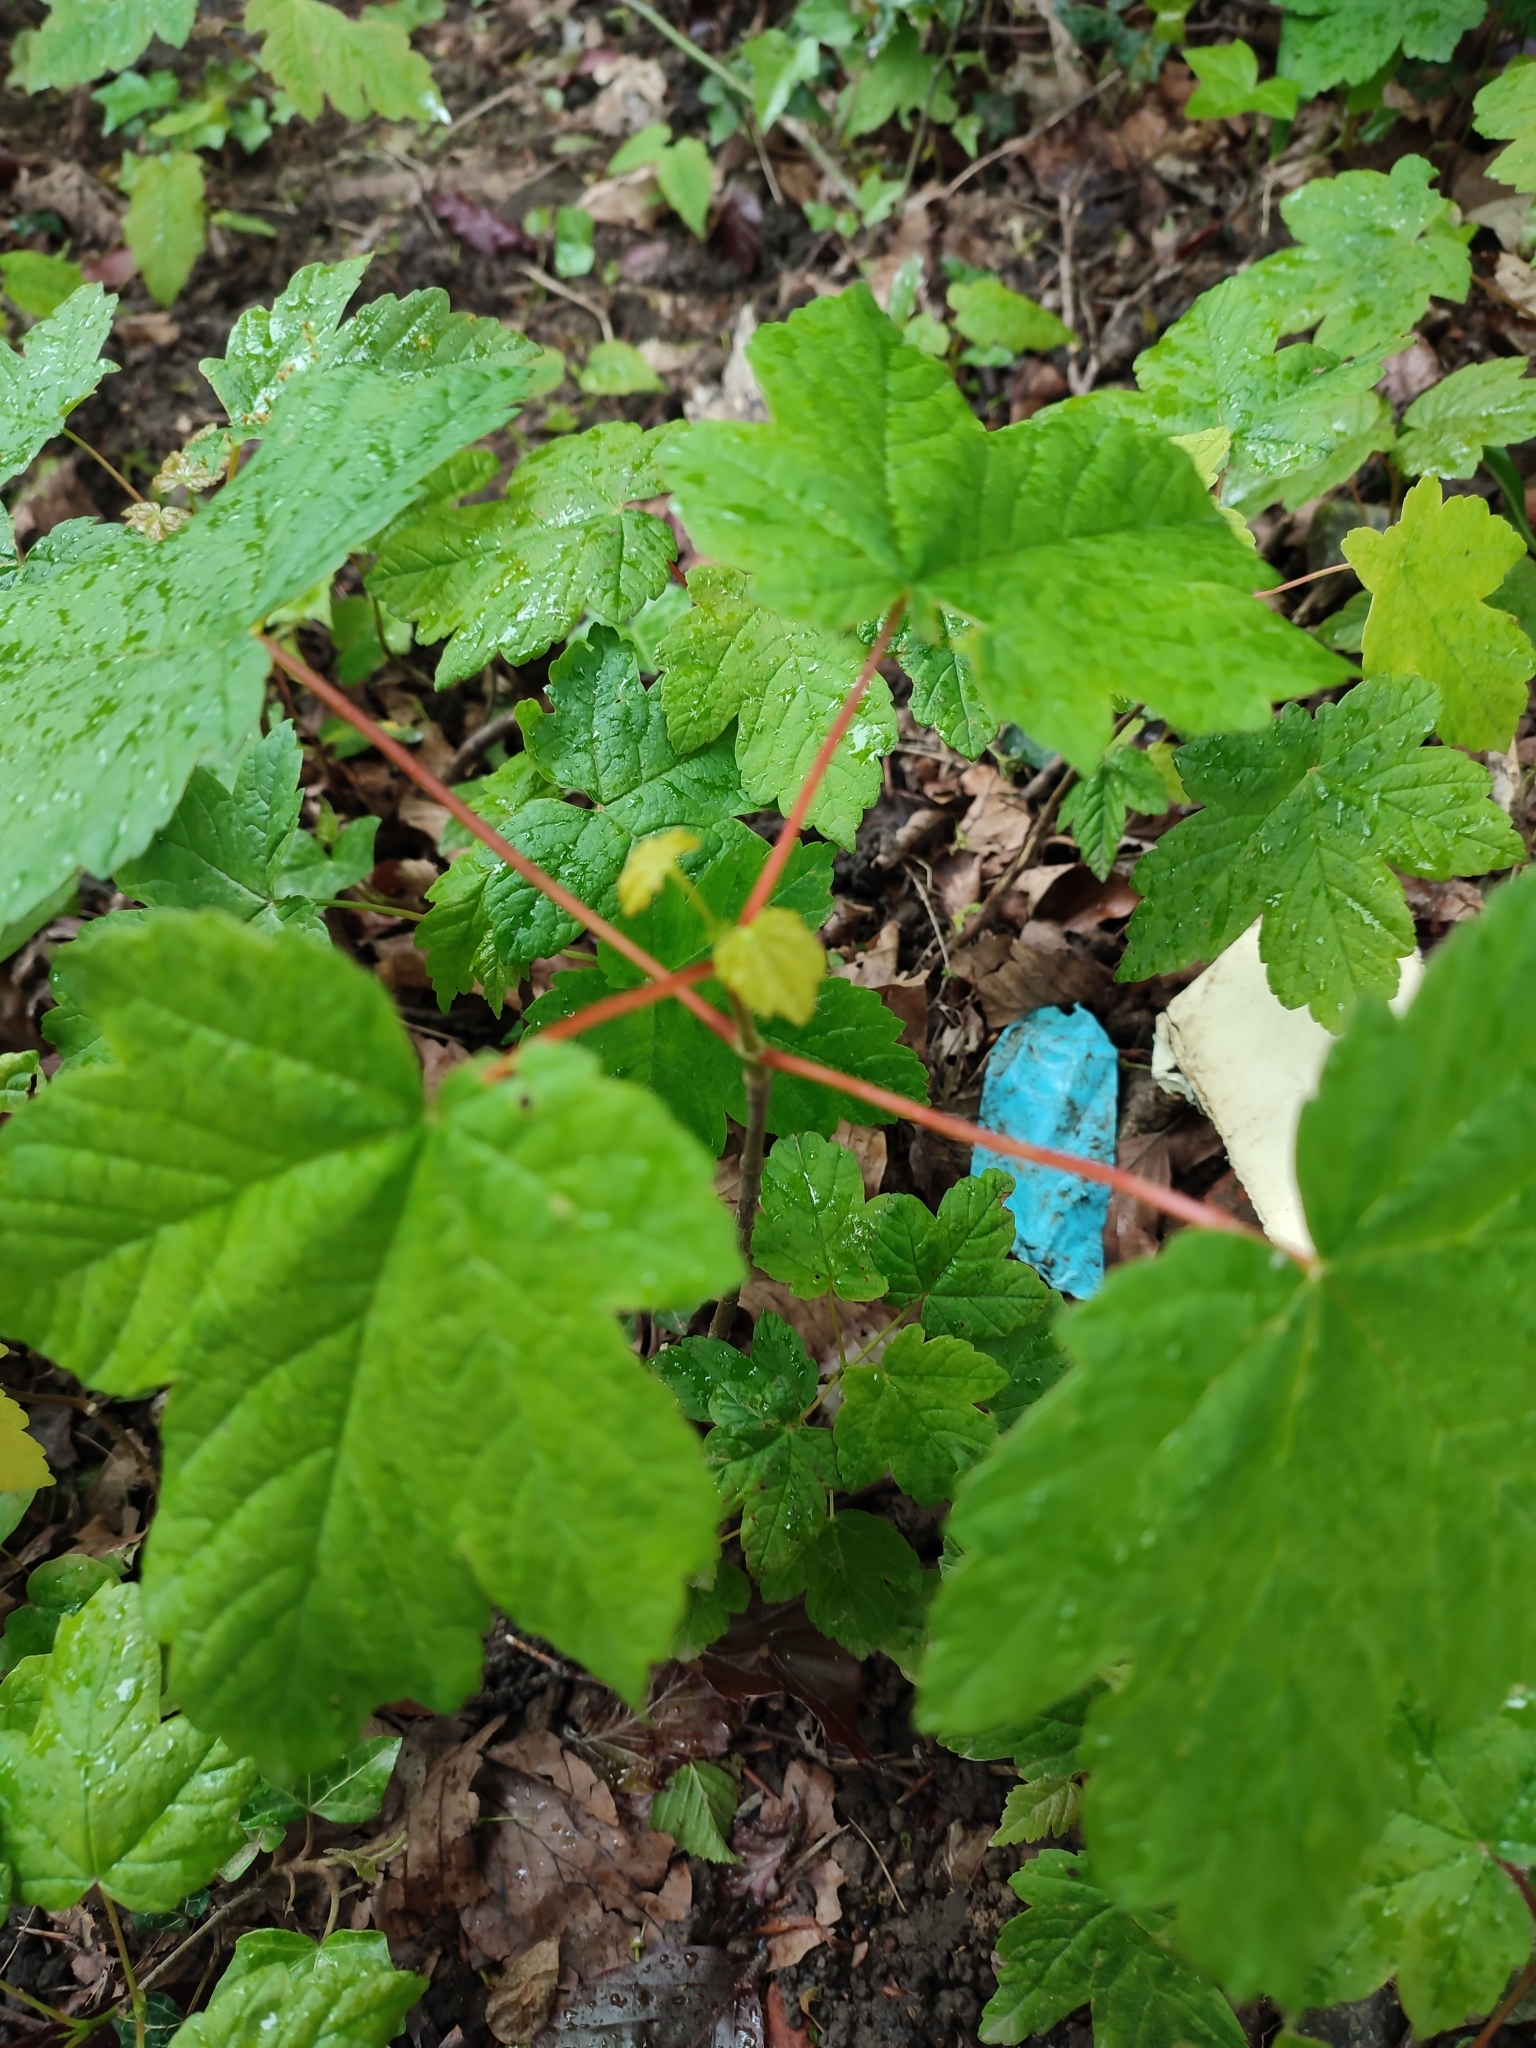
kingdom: Plantae
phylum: Tracheophyta
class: Magnoliopsida
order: Sapindales
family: Sapindaceae
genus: Acer
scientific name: Acer pseudoplatanus
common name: Sycamore
